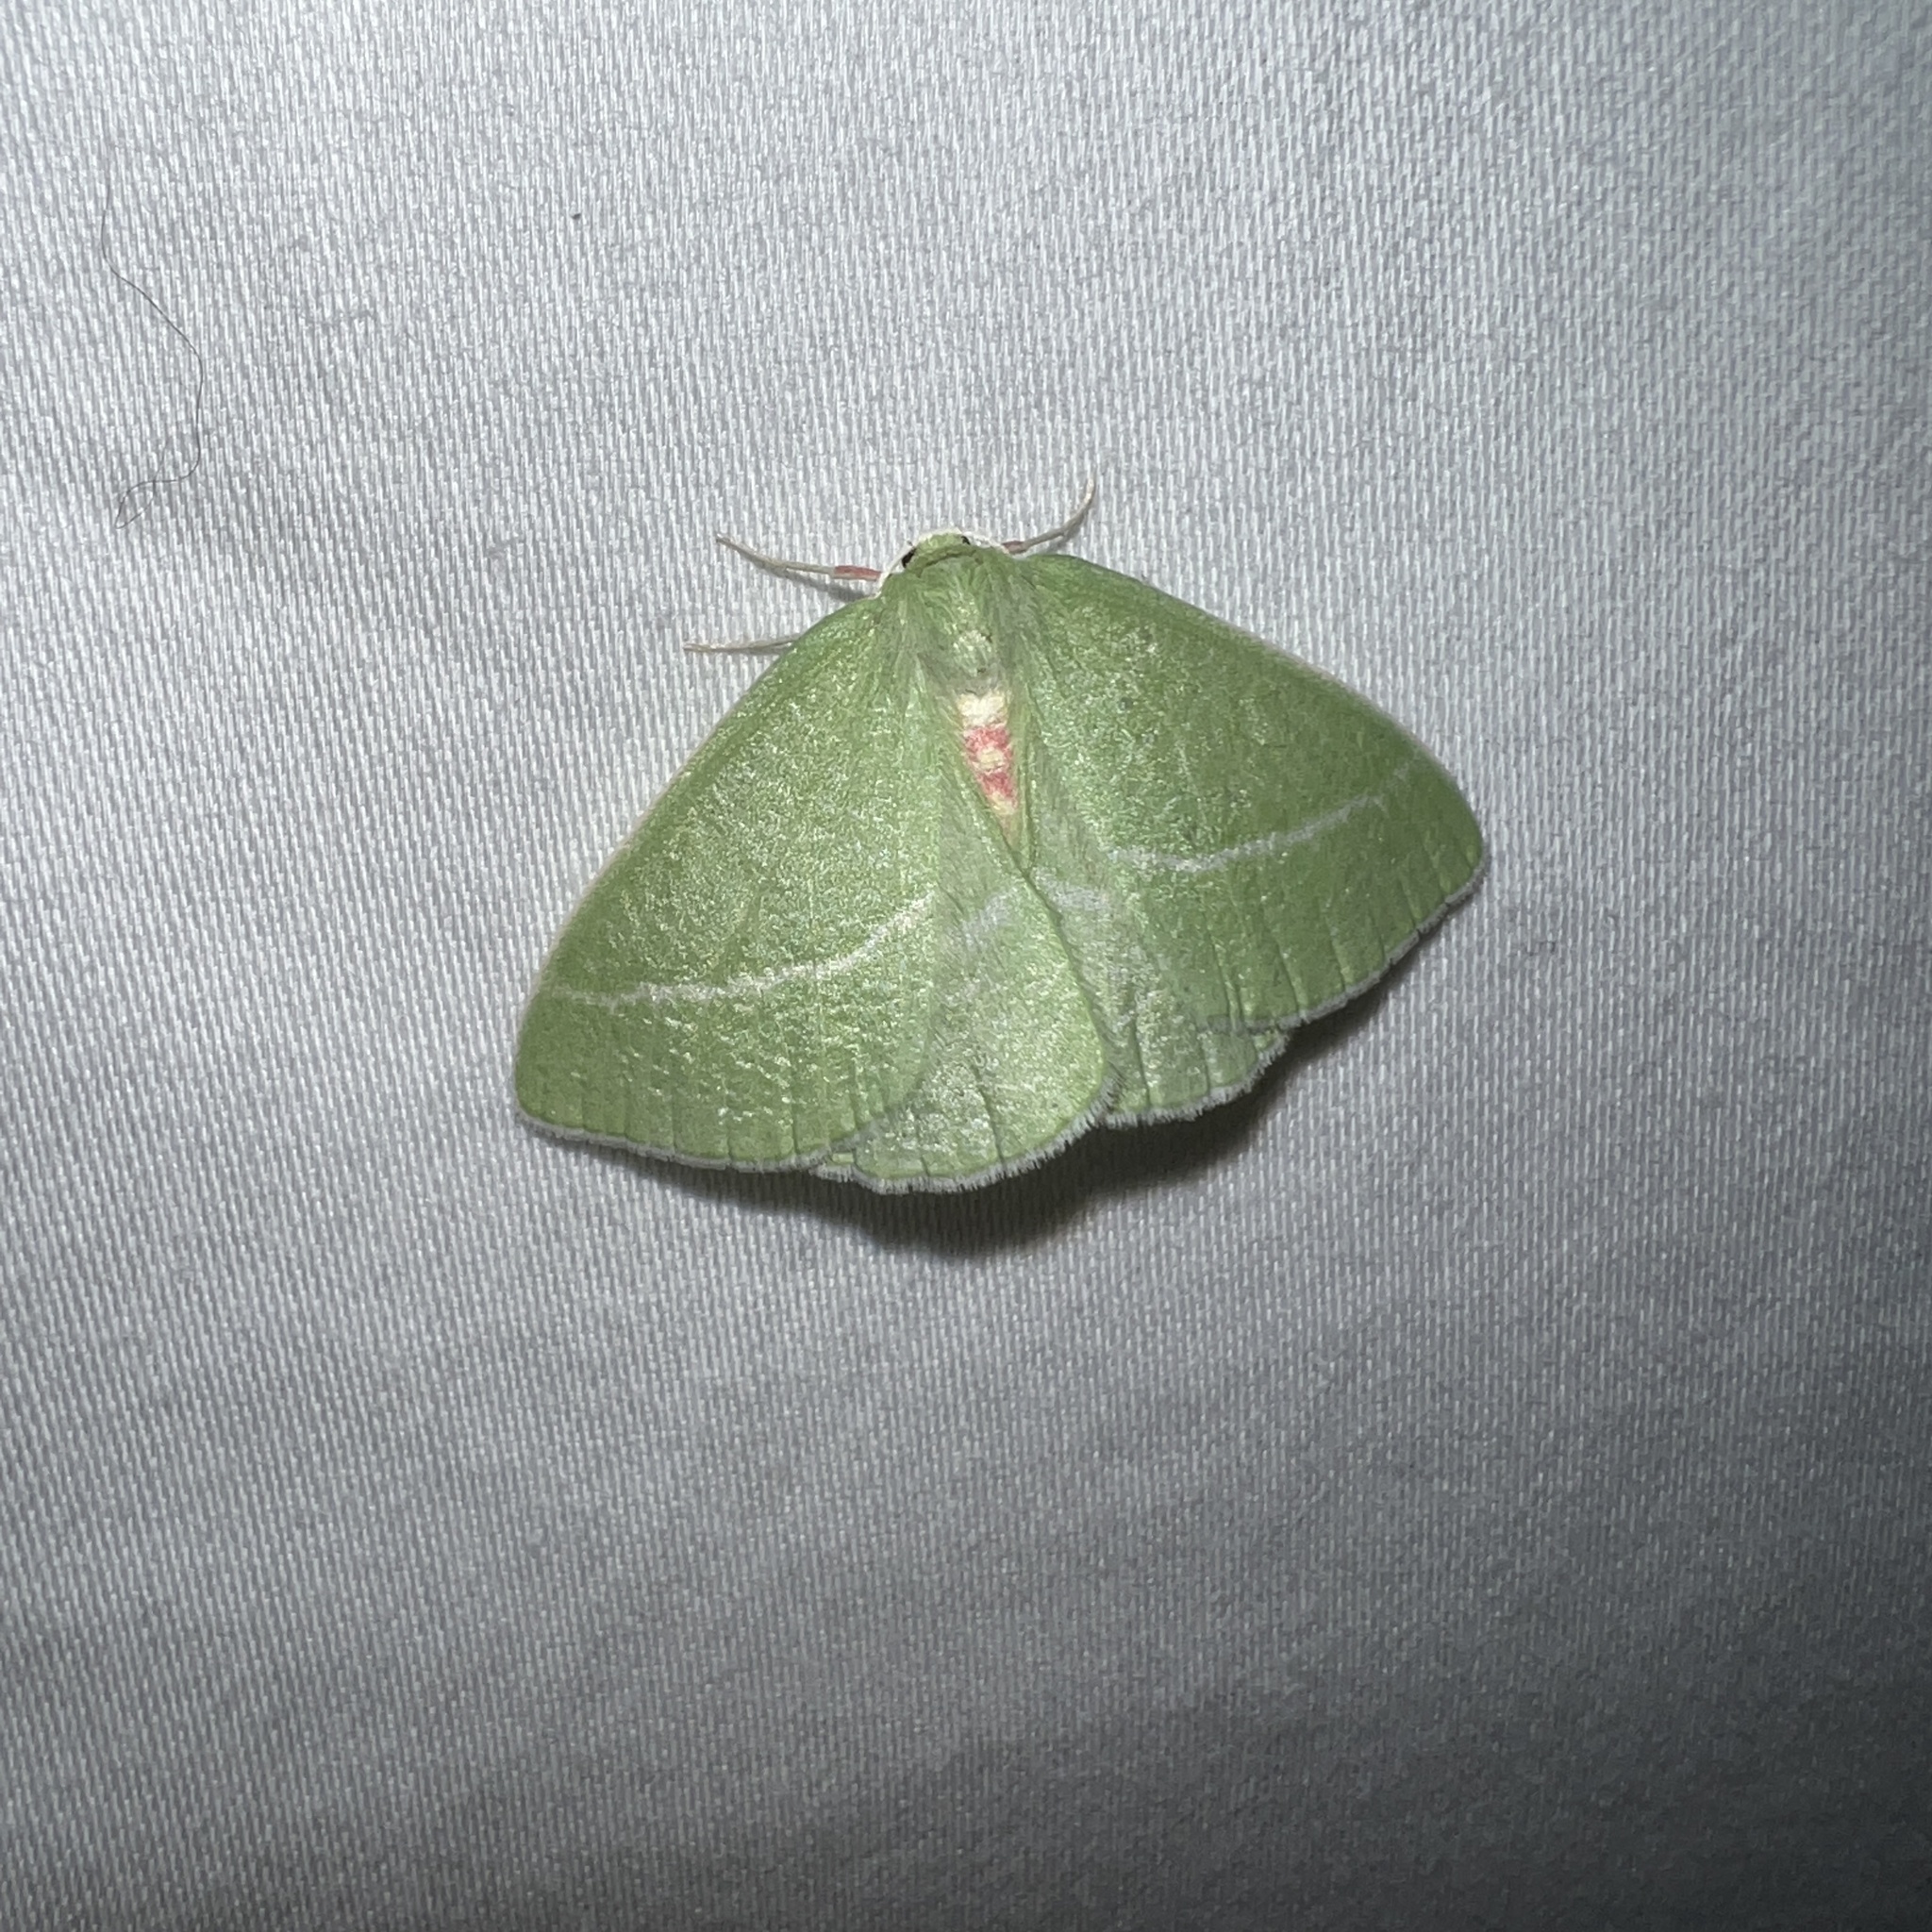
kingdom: Animalia
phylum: Arthropoda
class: Insecta
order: Lepidoptera
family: Geometridae
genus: Chlorosea
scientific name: Chlorosea banksaria
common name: Bank's emerald moth
